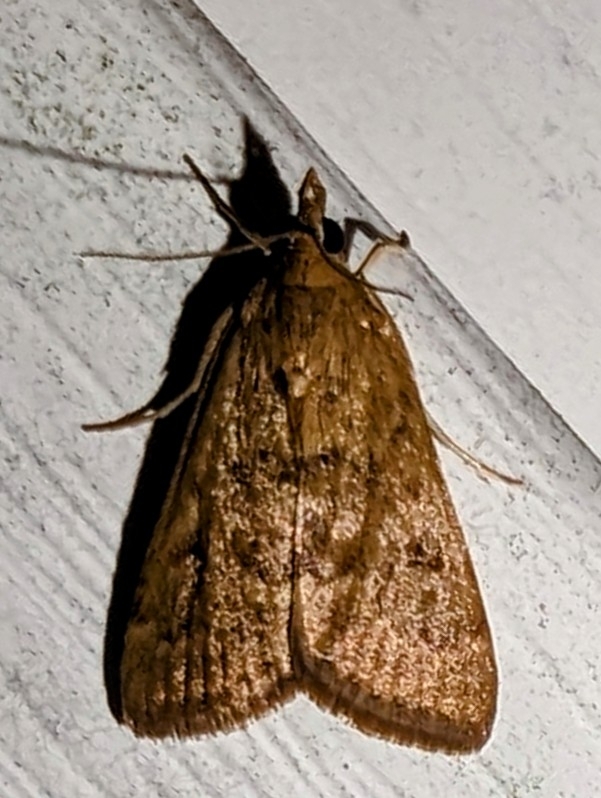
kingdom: Animalia
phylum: Arthropoda
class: Insecta
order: Lepidoptera
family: Crambidae
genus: Achyra
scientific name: Achyra rantalis
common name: Garden webworm
